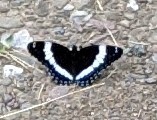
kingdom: Animalia
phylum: Arthropoda
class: Insecta
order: Lepidoptera
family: Nymphalidae
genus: Limenitis
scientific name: Limenitis arthemis
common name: Red-spotted admiral
